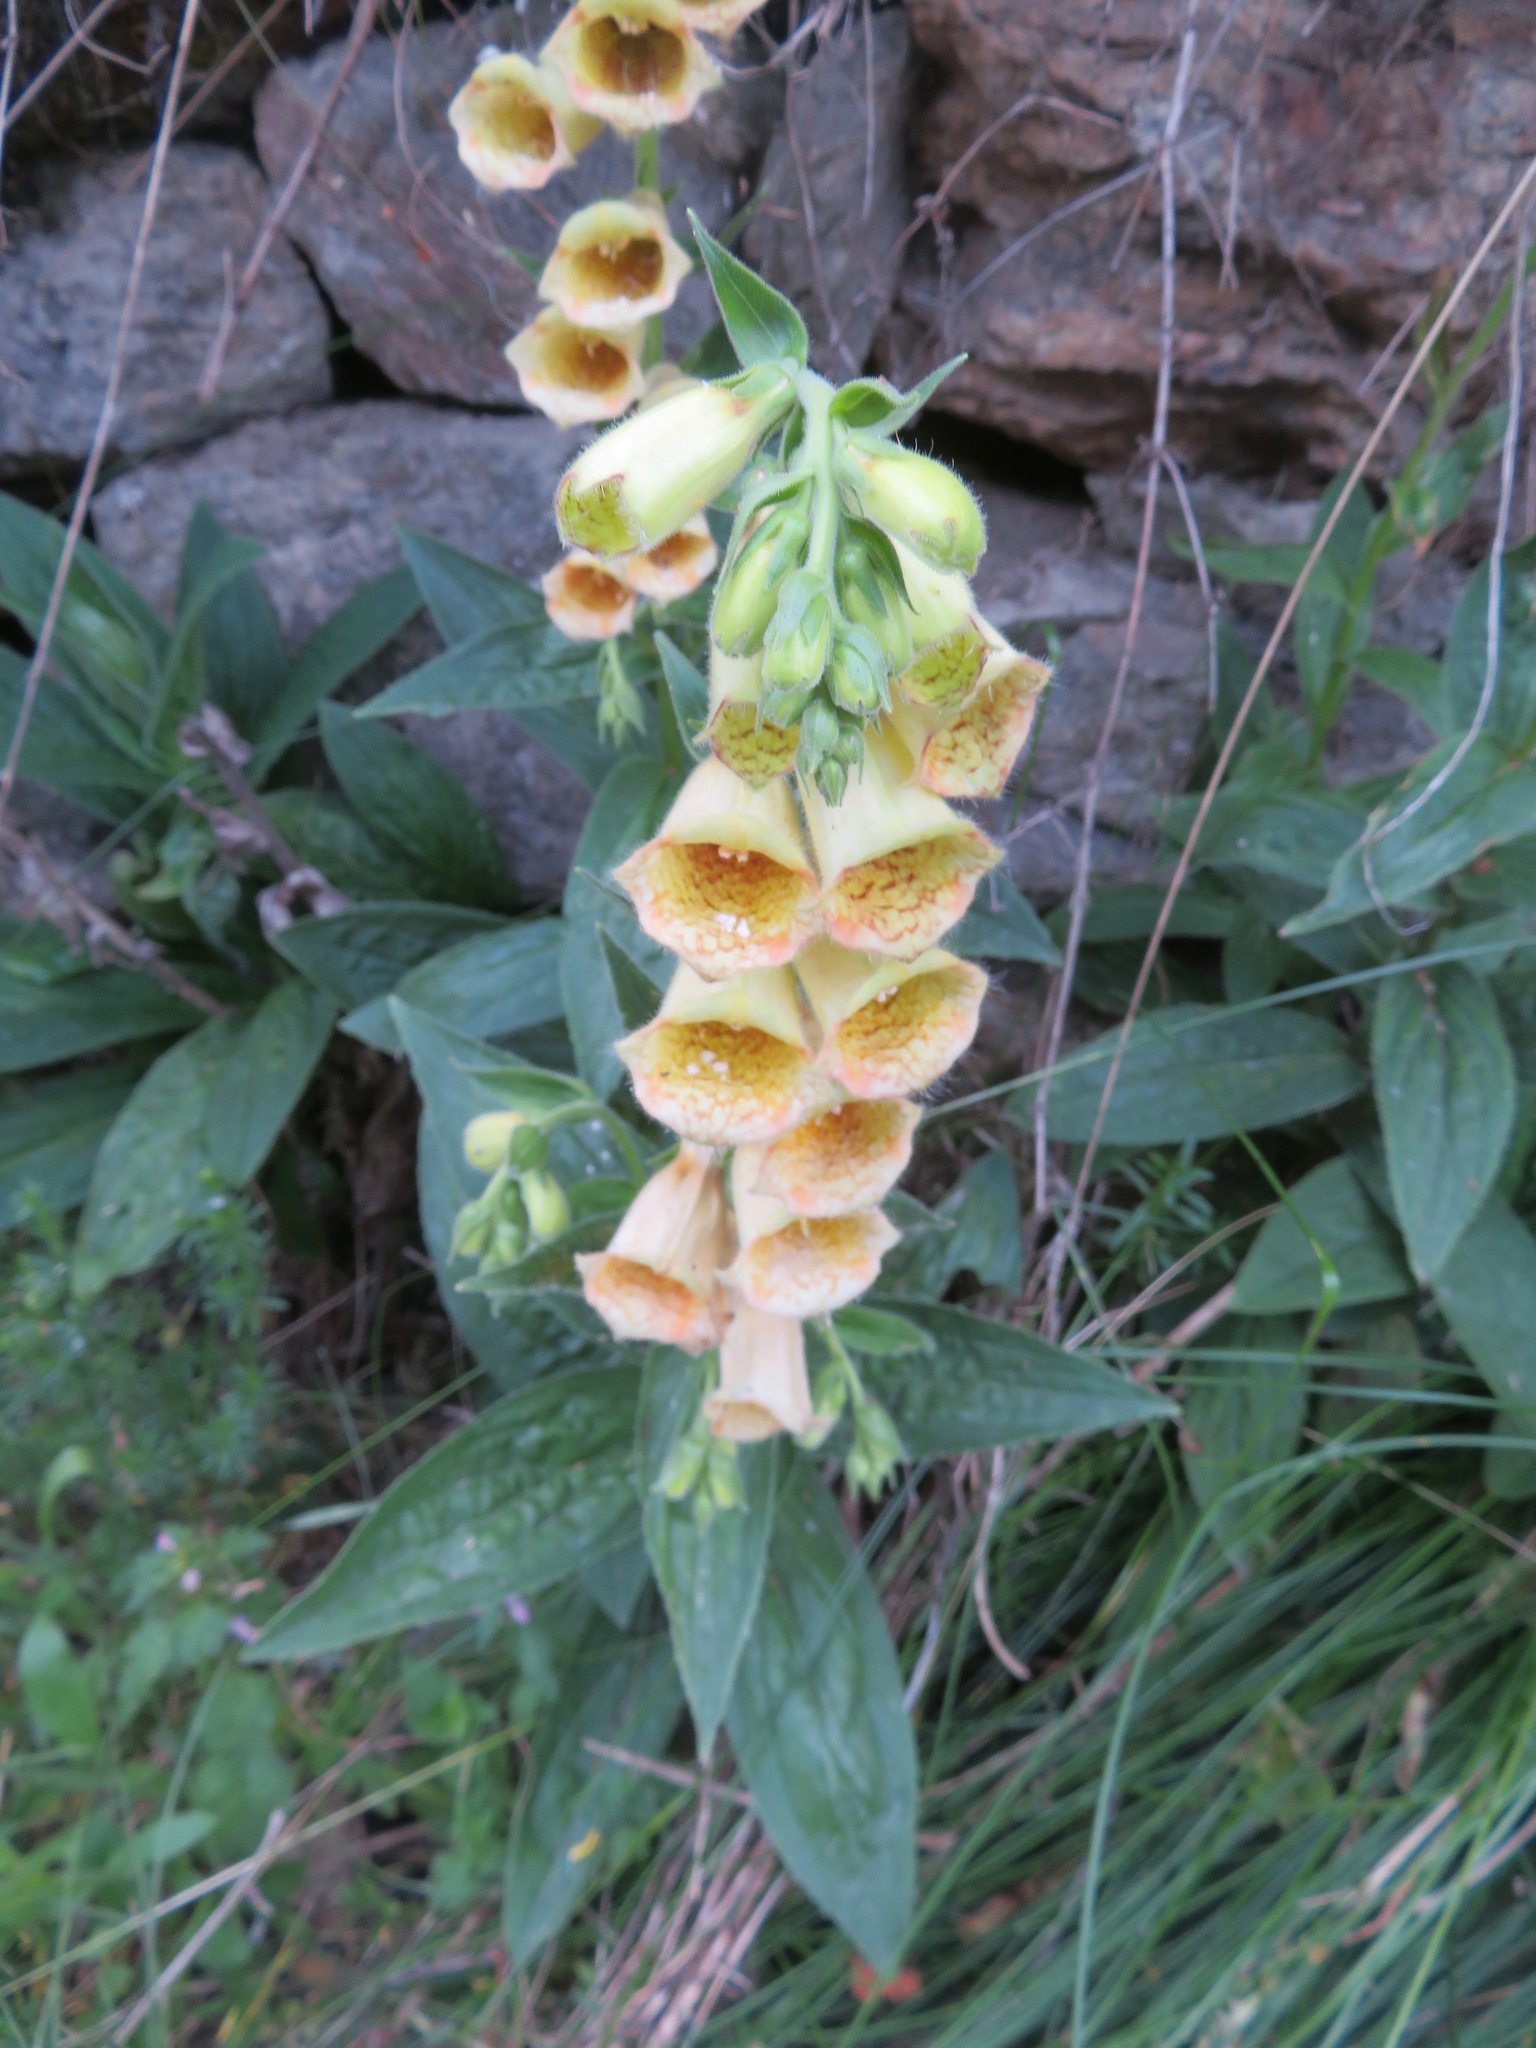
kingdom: Plantae
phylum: Tracheophyta
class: Magnoliopsida
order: Lamiales
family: Plantaginaceae
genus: Digitalis
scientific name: Digitalis grandiflora
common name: Yellow foxglove
